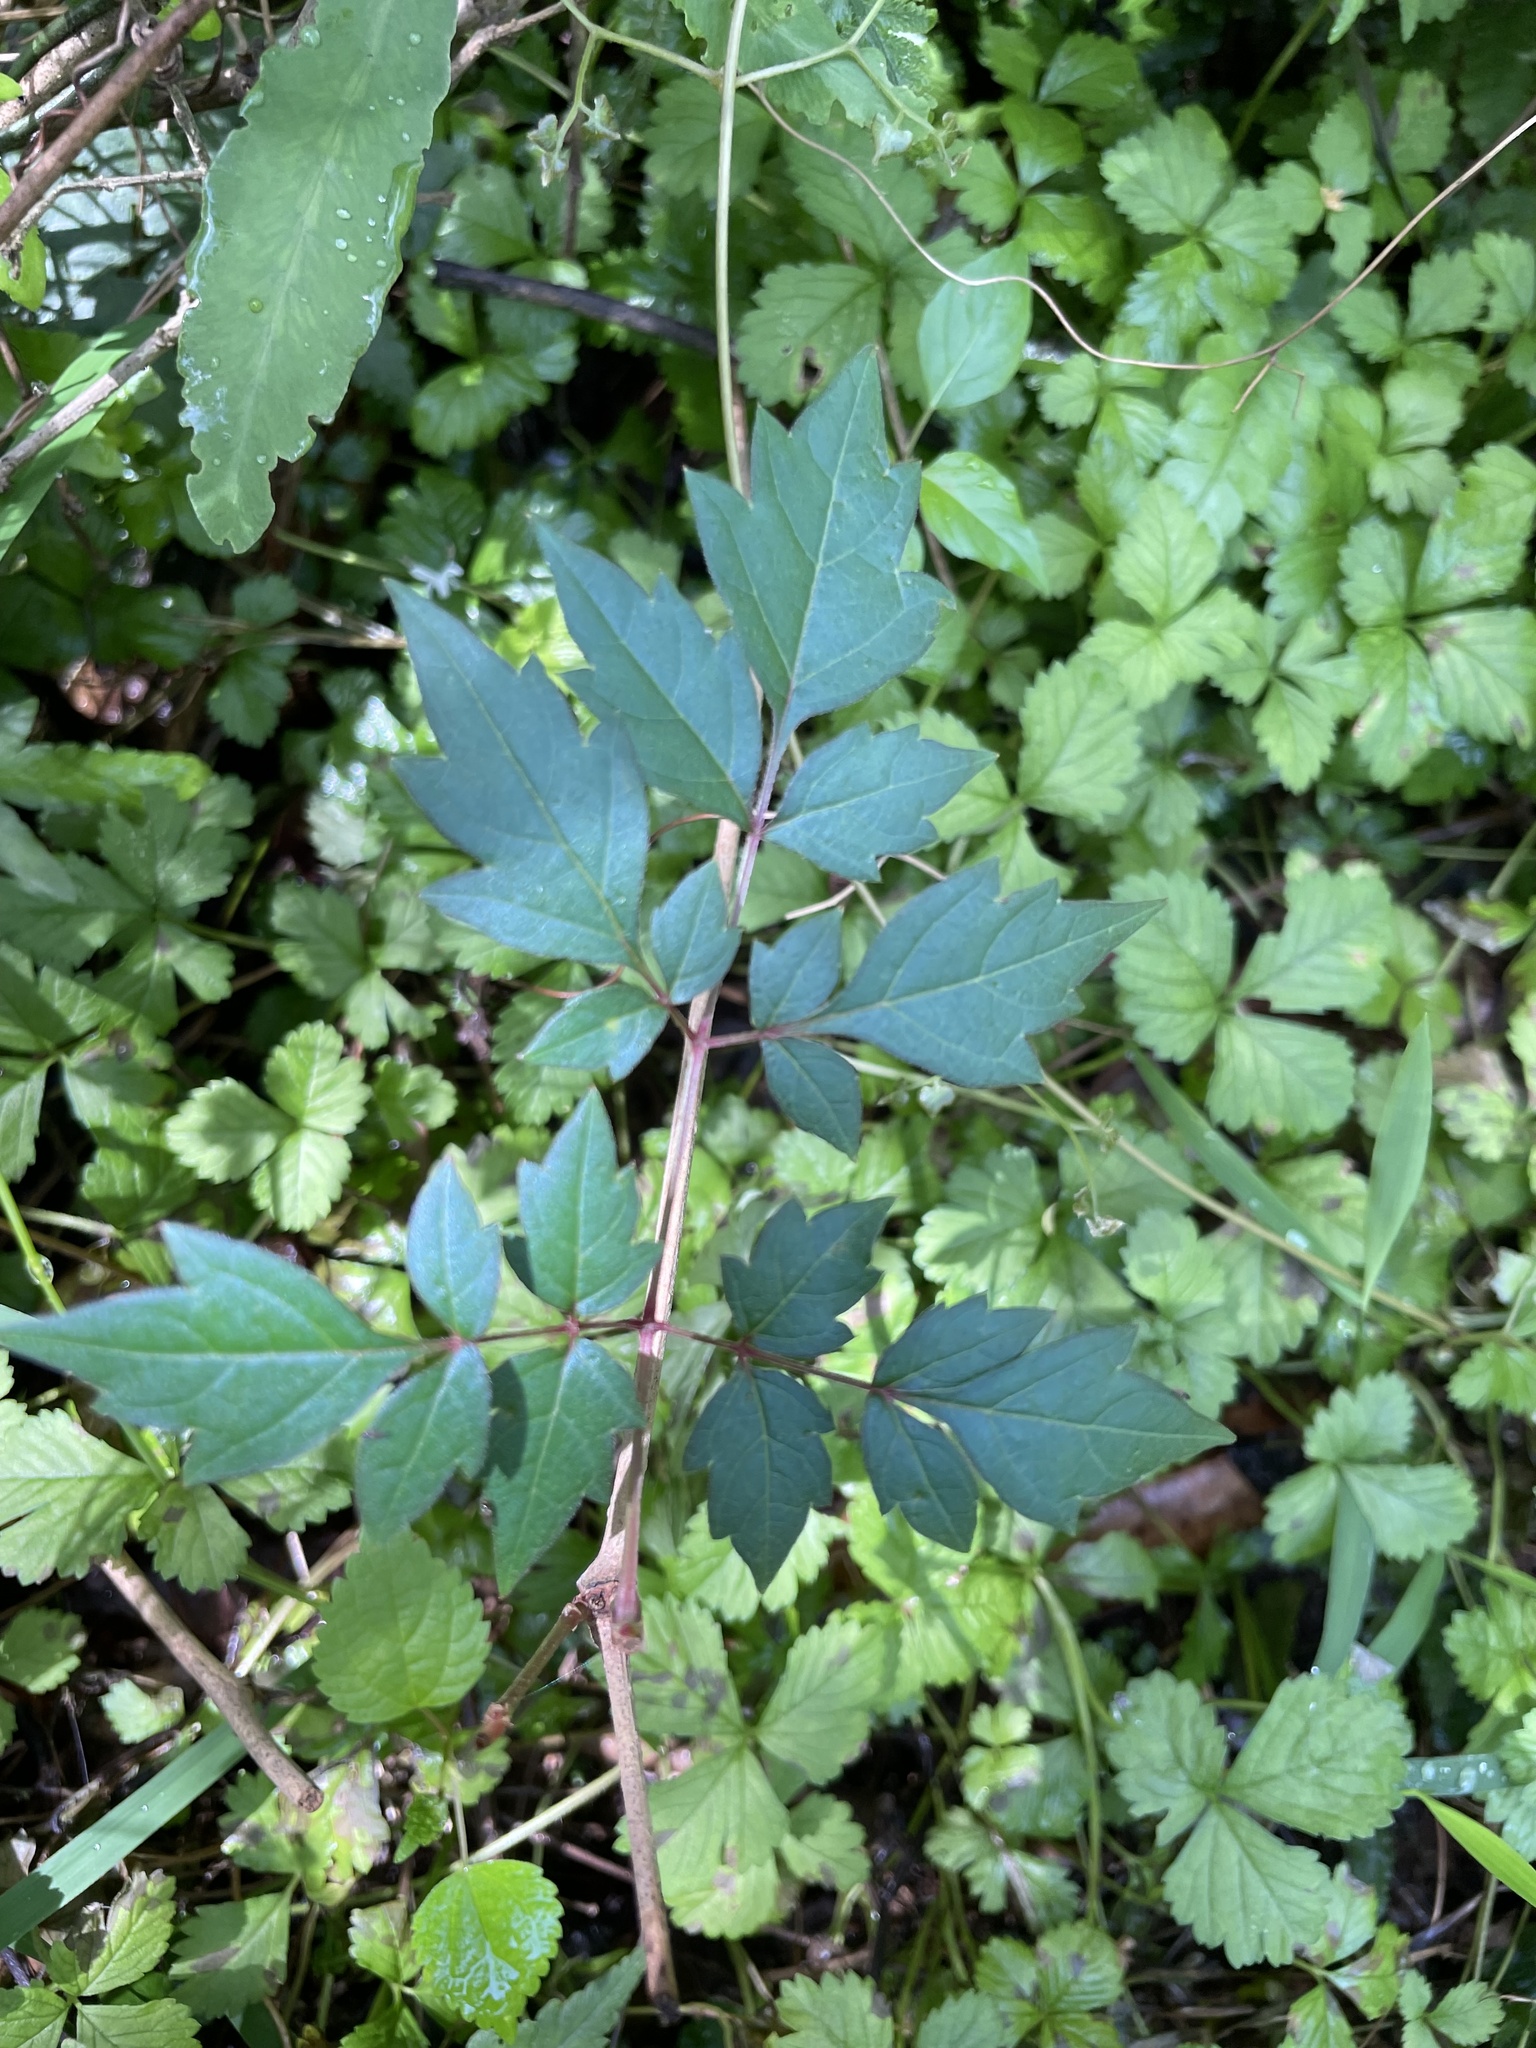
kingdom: Plantae
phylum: Tracheophyta
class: Magnoliopsida
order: Vitales
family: Vitaceae
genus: Nekemias
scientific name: Nekemias arborea
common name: Peppervine
